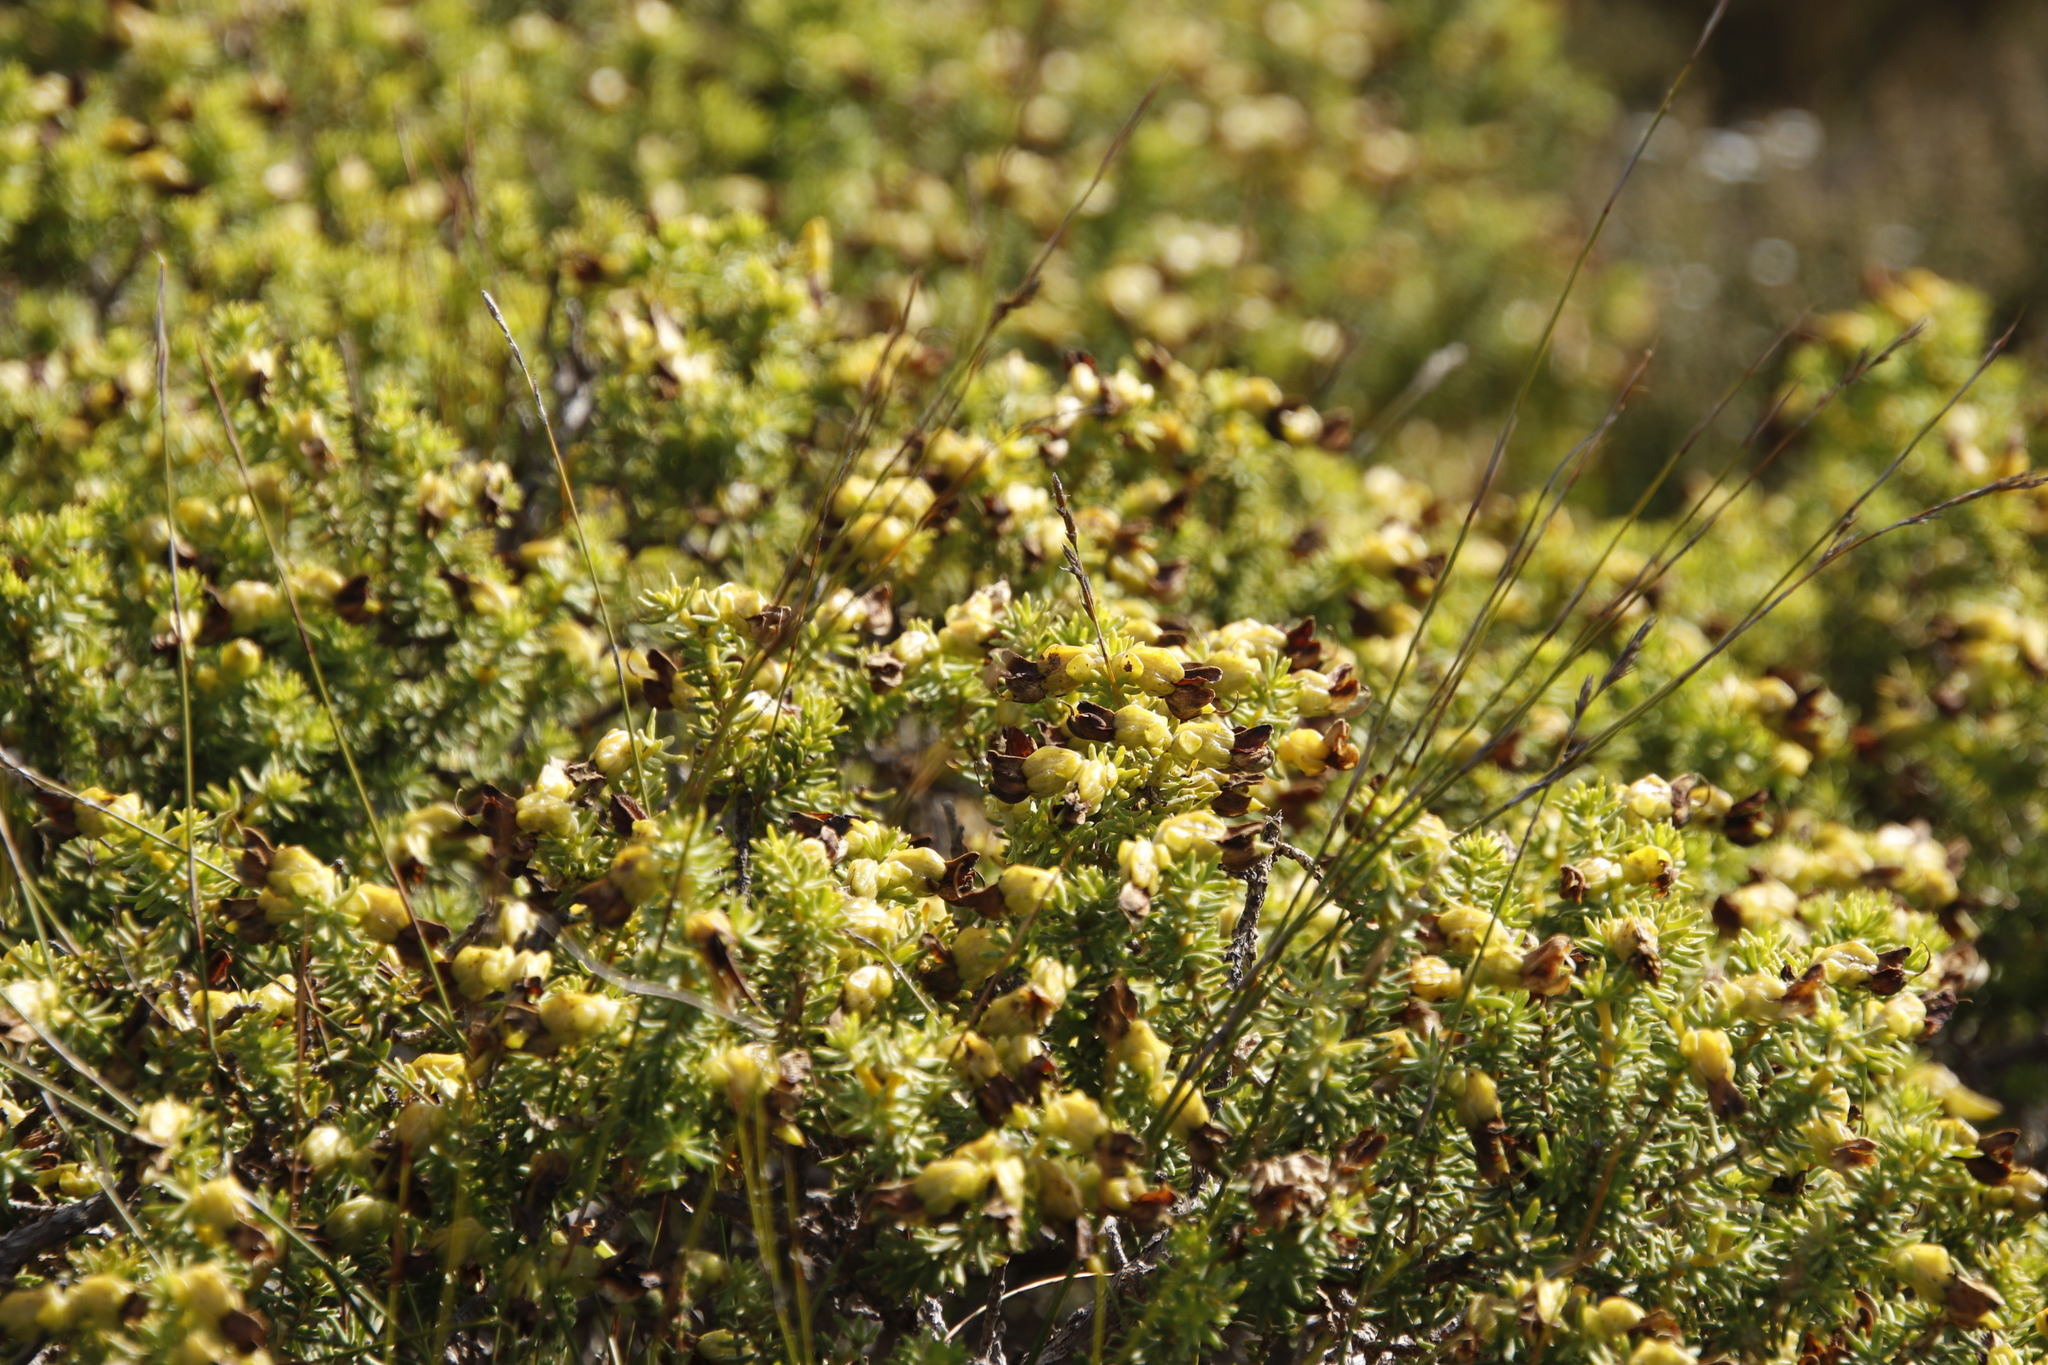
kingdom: Plantae
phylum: Tracheophyta
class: Magnoliopsida
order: Fabales
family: Fabaceae
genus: Aspalathus
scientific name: Aspalathus capensis
